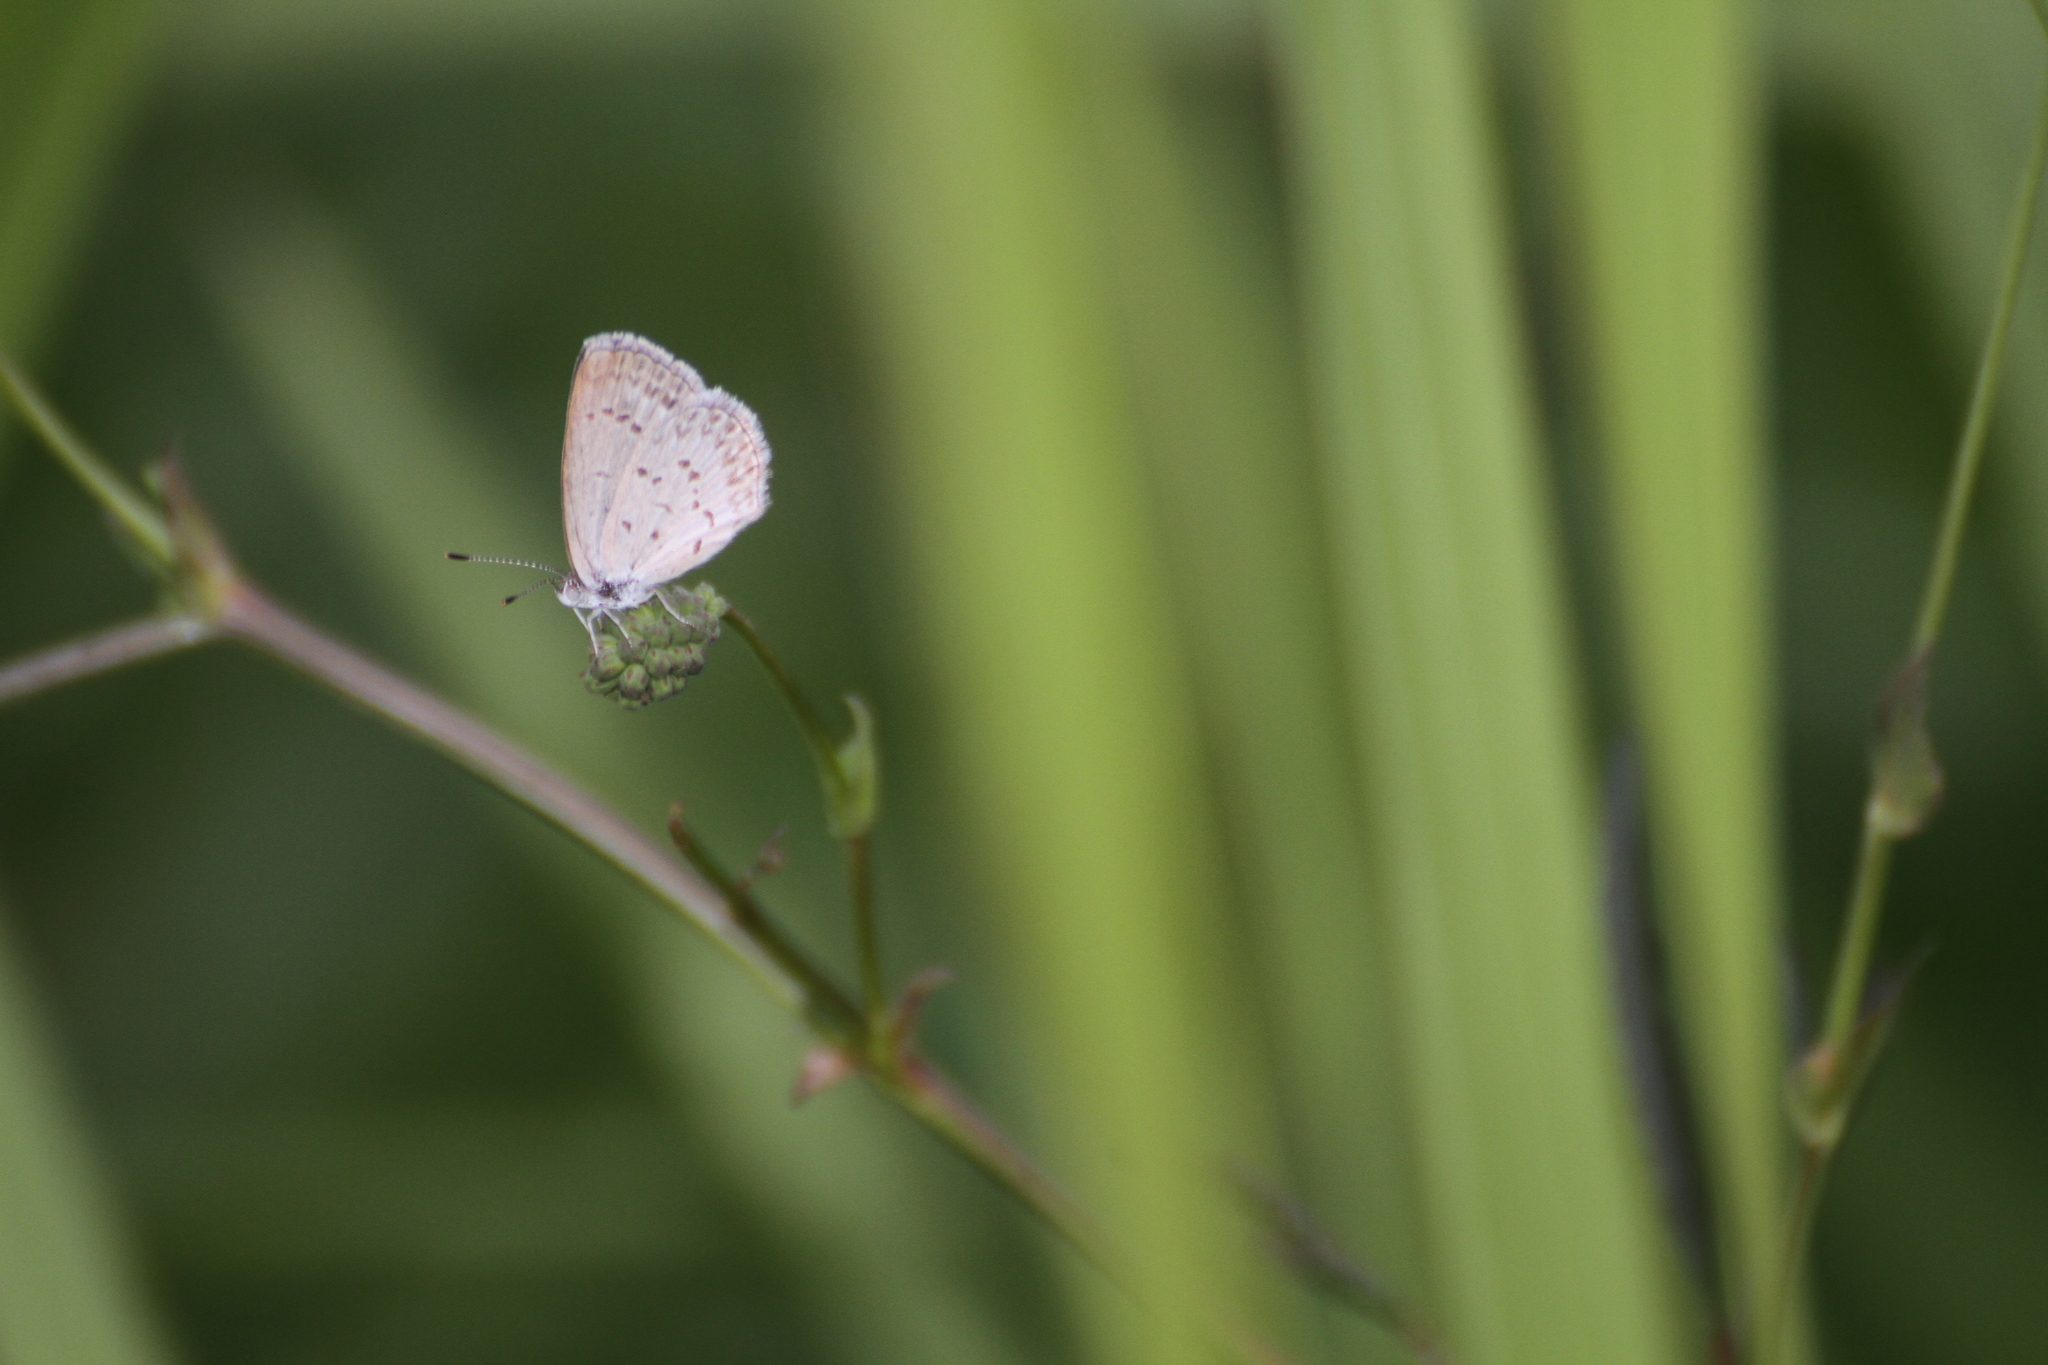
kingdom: Animalia
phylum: Arthropoda
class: Insecta
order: Lepidoptera
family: Lycaenidae
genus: Zizina
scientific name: Zizina otis
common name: Lesser grass blue
